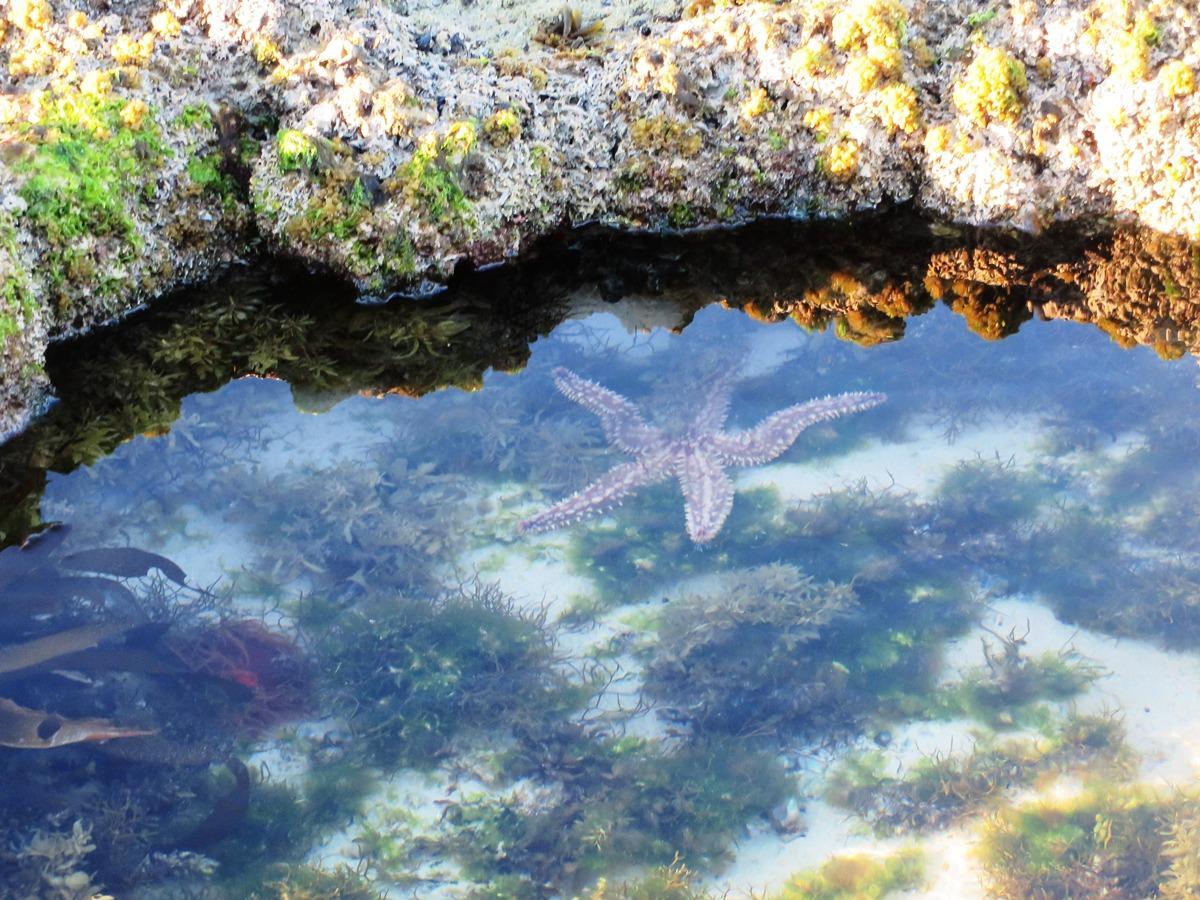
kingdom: Animalia
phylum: Echinodermata
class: Asteroidea
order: Forcipulatida
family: Asteriidae
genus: Marthasterias
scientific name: Marthasterias africana
